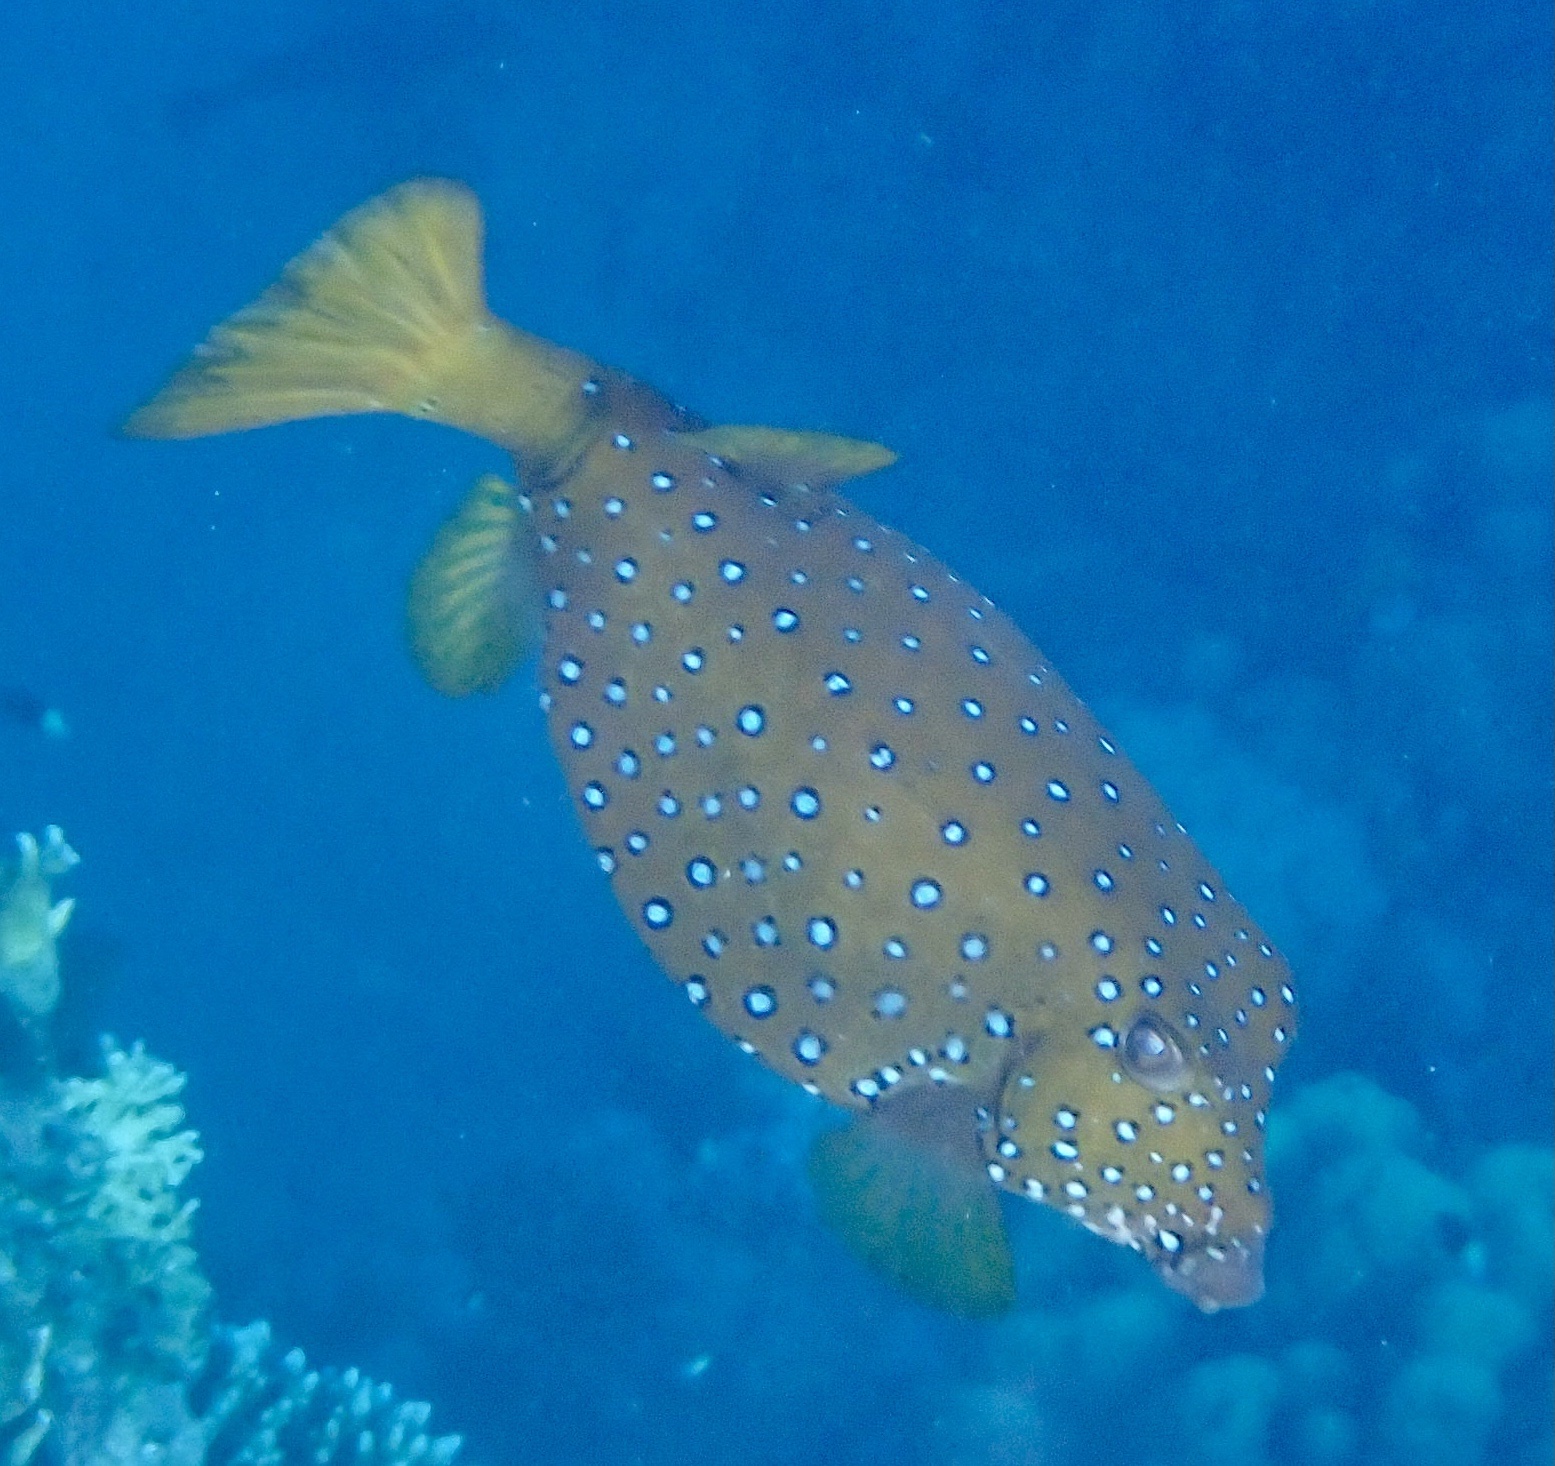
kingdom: Animalia
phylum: Chordata
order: Tetraodontiformes
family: Ostraciidae
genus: Ostracion
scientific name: Ostracion cubicus
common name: Cube trunkfish
